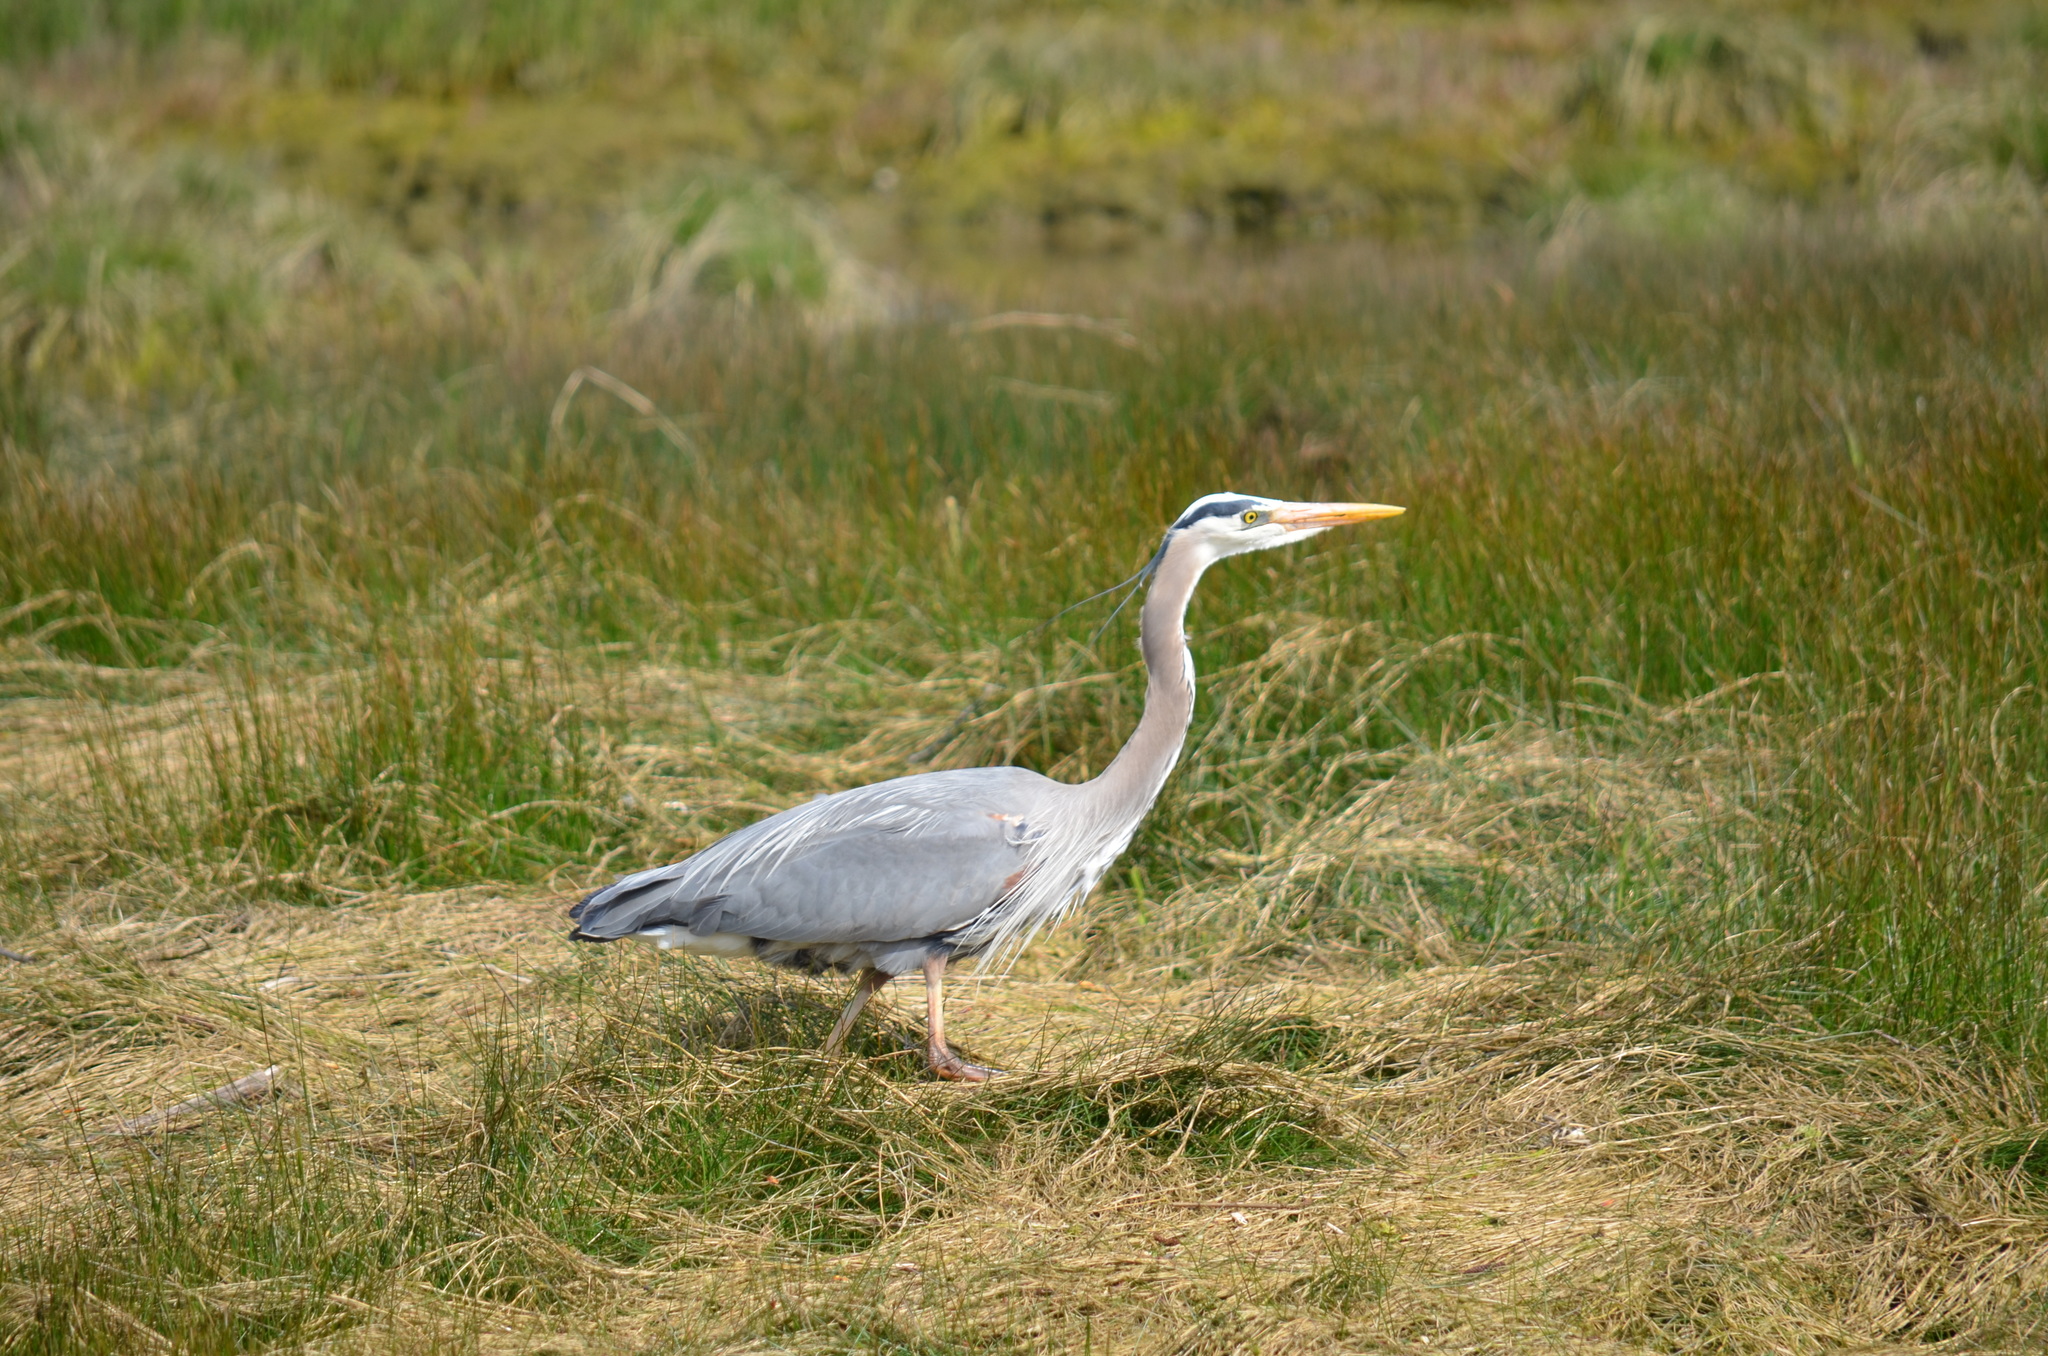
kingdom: Animalia
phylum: Chordata
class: Aves
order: Pelecaniformes
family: Ardeidae
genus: Ardea
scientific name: Ardea herodias
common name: Great blue heron
